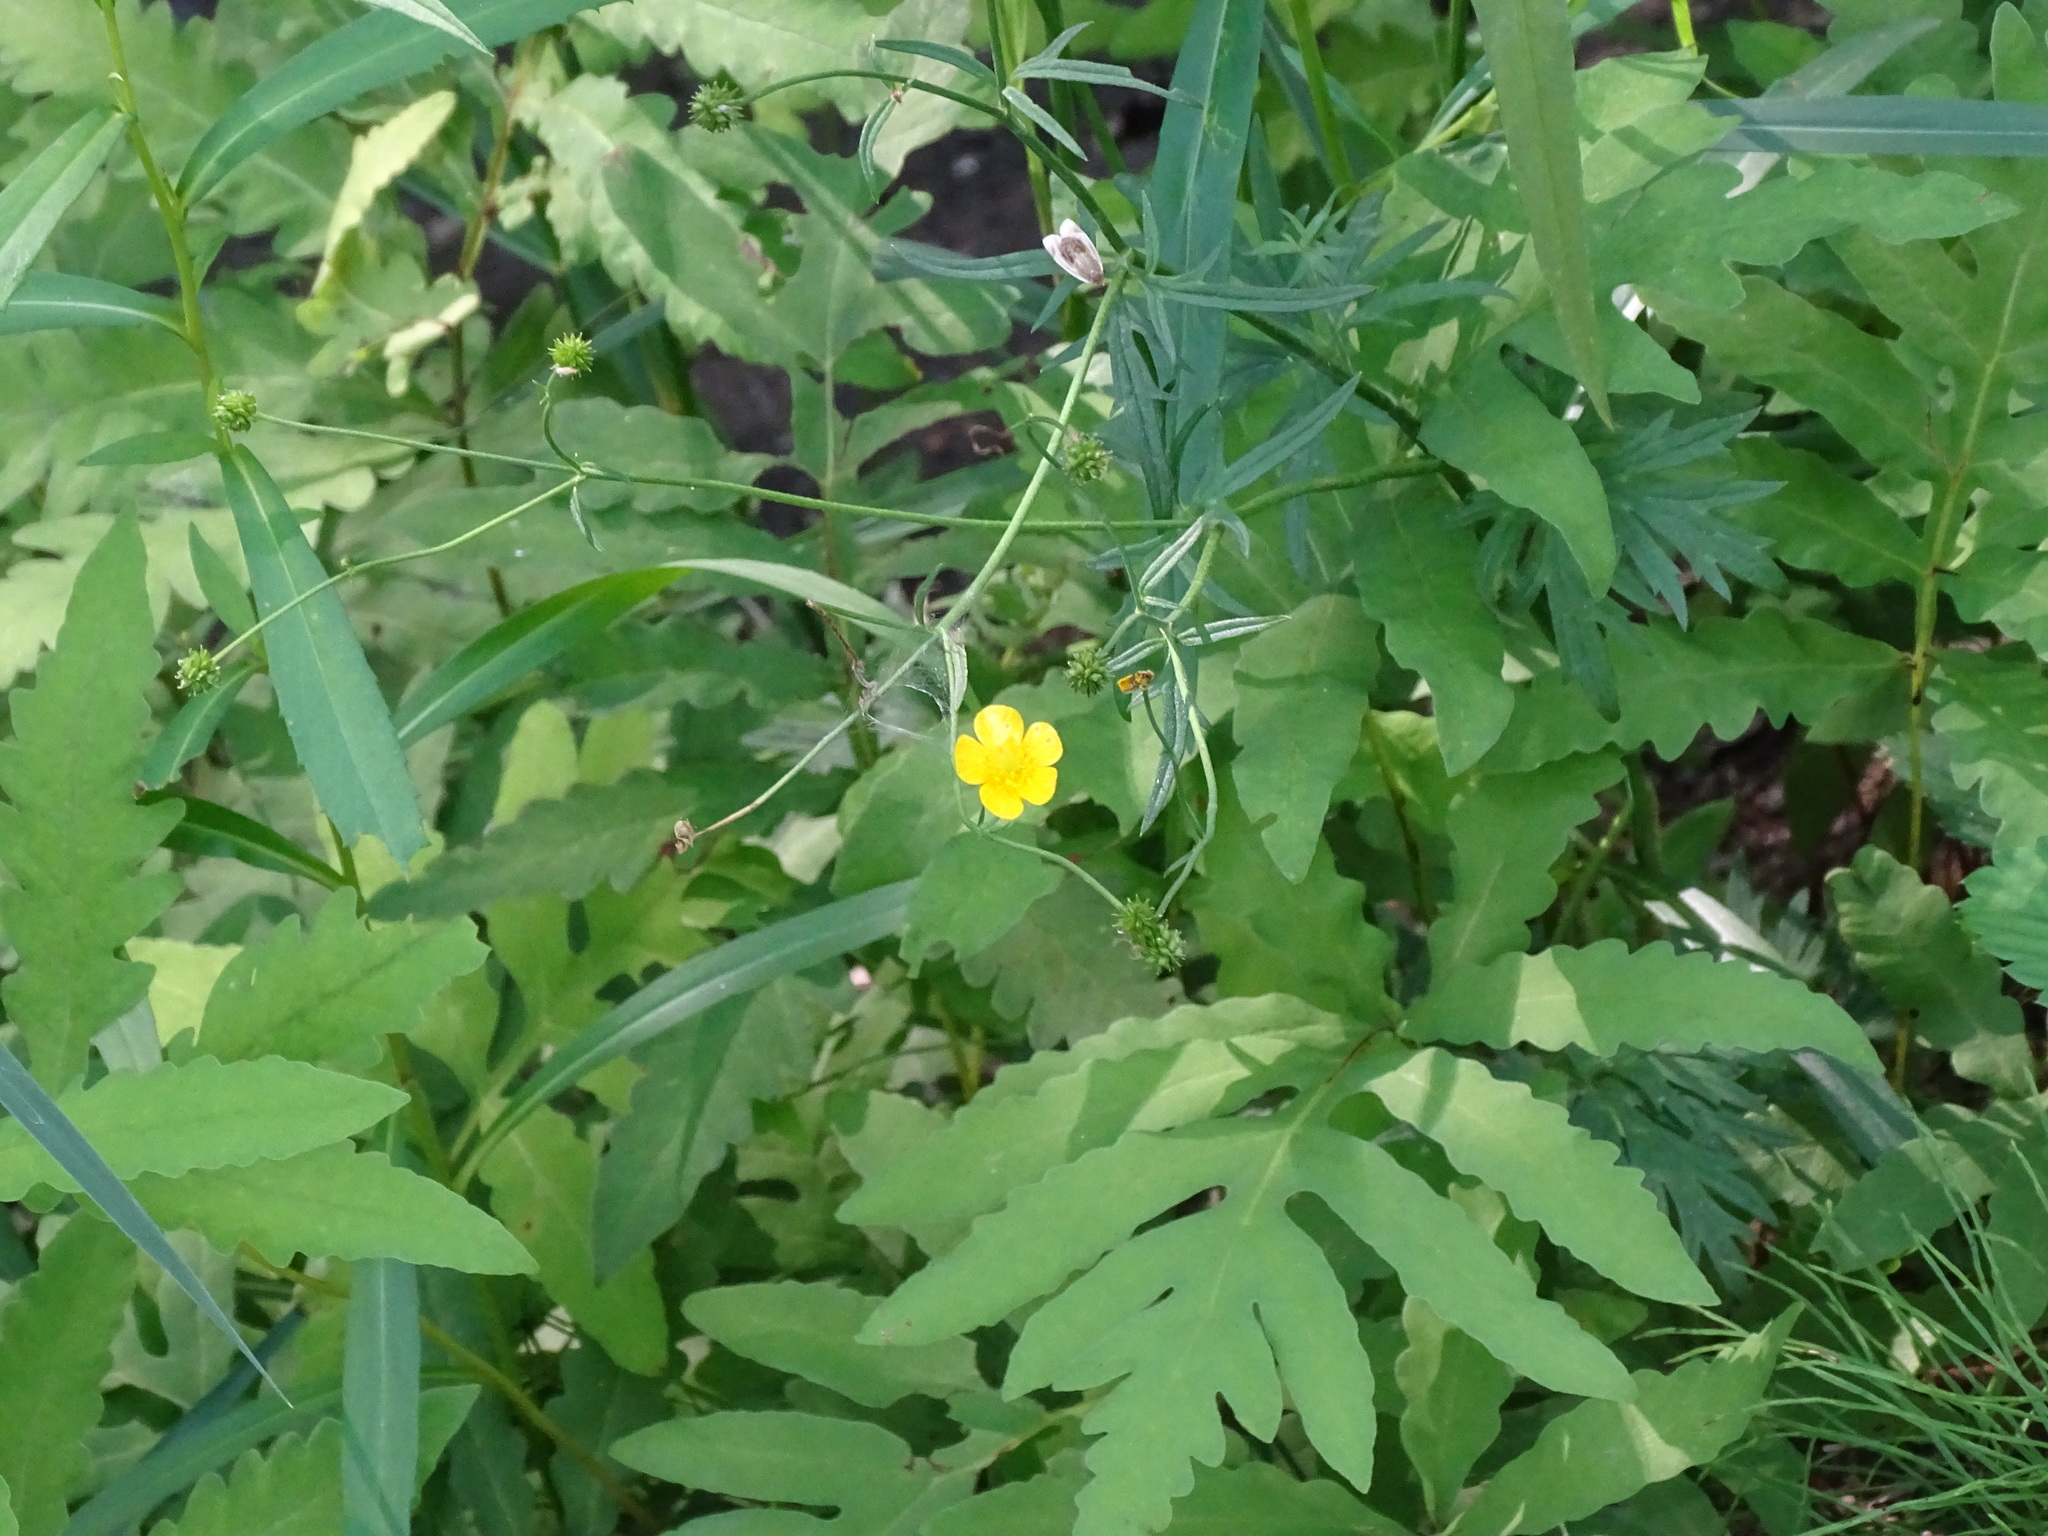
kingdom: Plantae
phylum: Tracheophyta
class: Magnoliopsida
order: Ranunculales
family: Ranunculaceae
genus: Ranunculus
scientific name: Ranunculus acris
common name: Meadow buttercup
